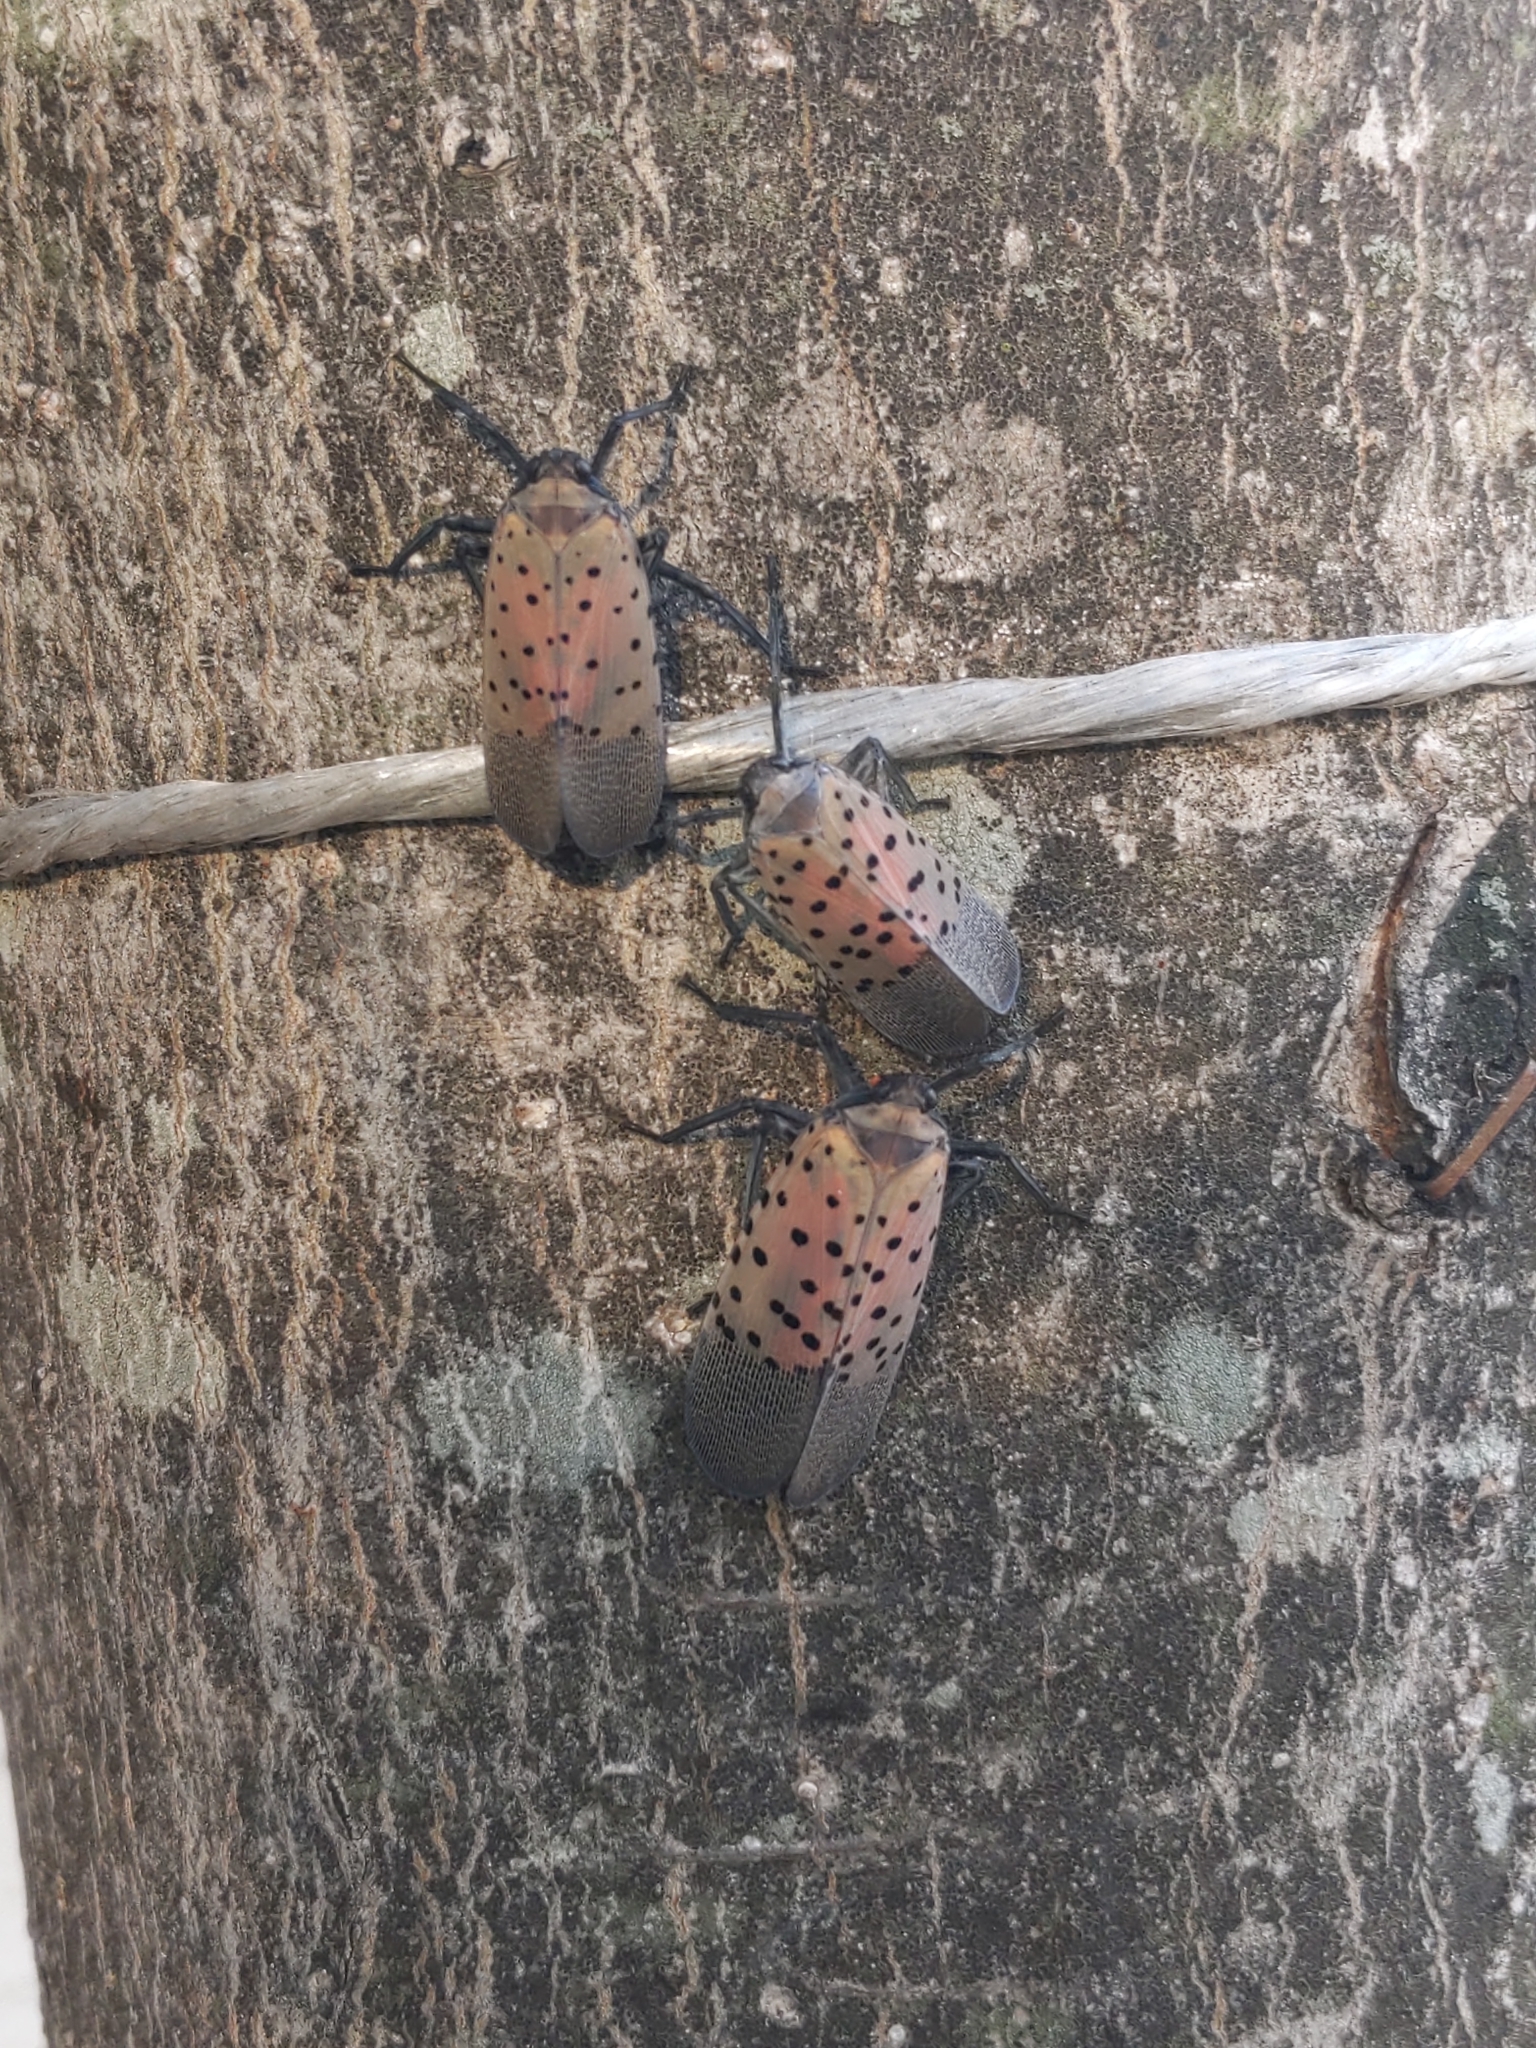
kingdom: Animalia
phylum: Arthropoda
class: Insecta
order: Hemiptera
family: Fulgoridae
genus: Lycorma
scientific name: Lycorma delicatula
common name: Spotted lanternfly
